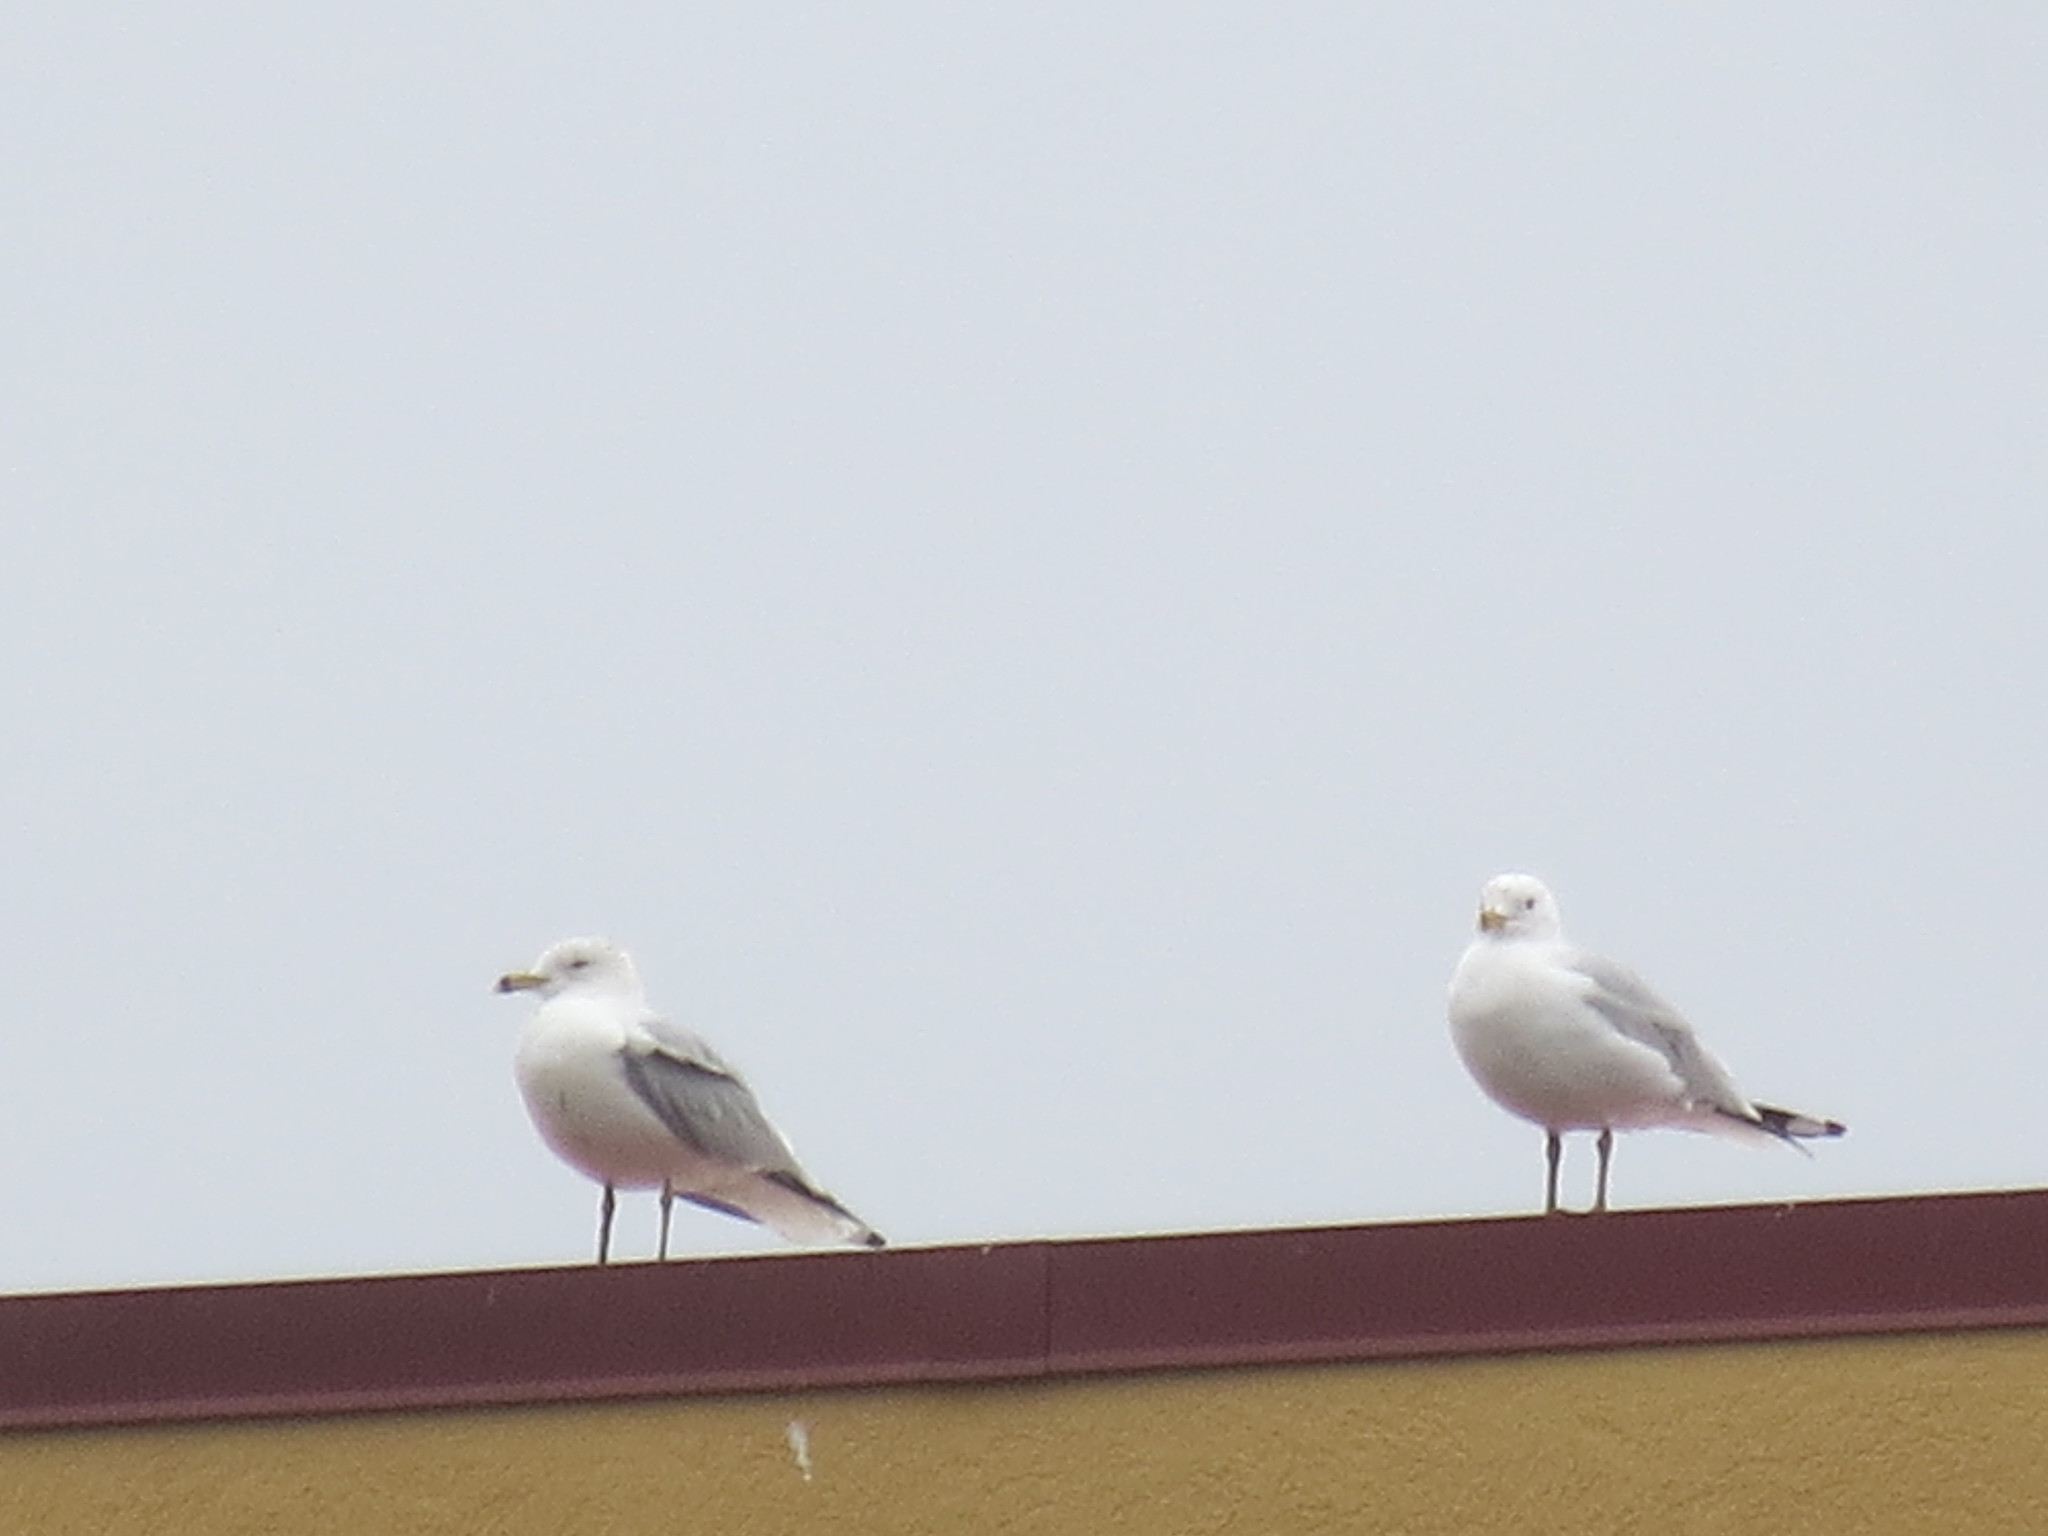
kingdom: Animalia
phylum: Chordata
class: Aves
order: Charadriiformes
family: Laridae
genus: Larus
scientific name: Larus delawarensis
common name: Ring-billed gull
